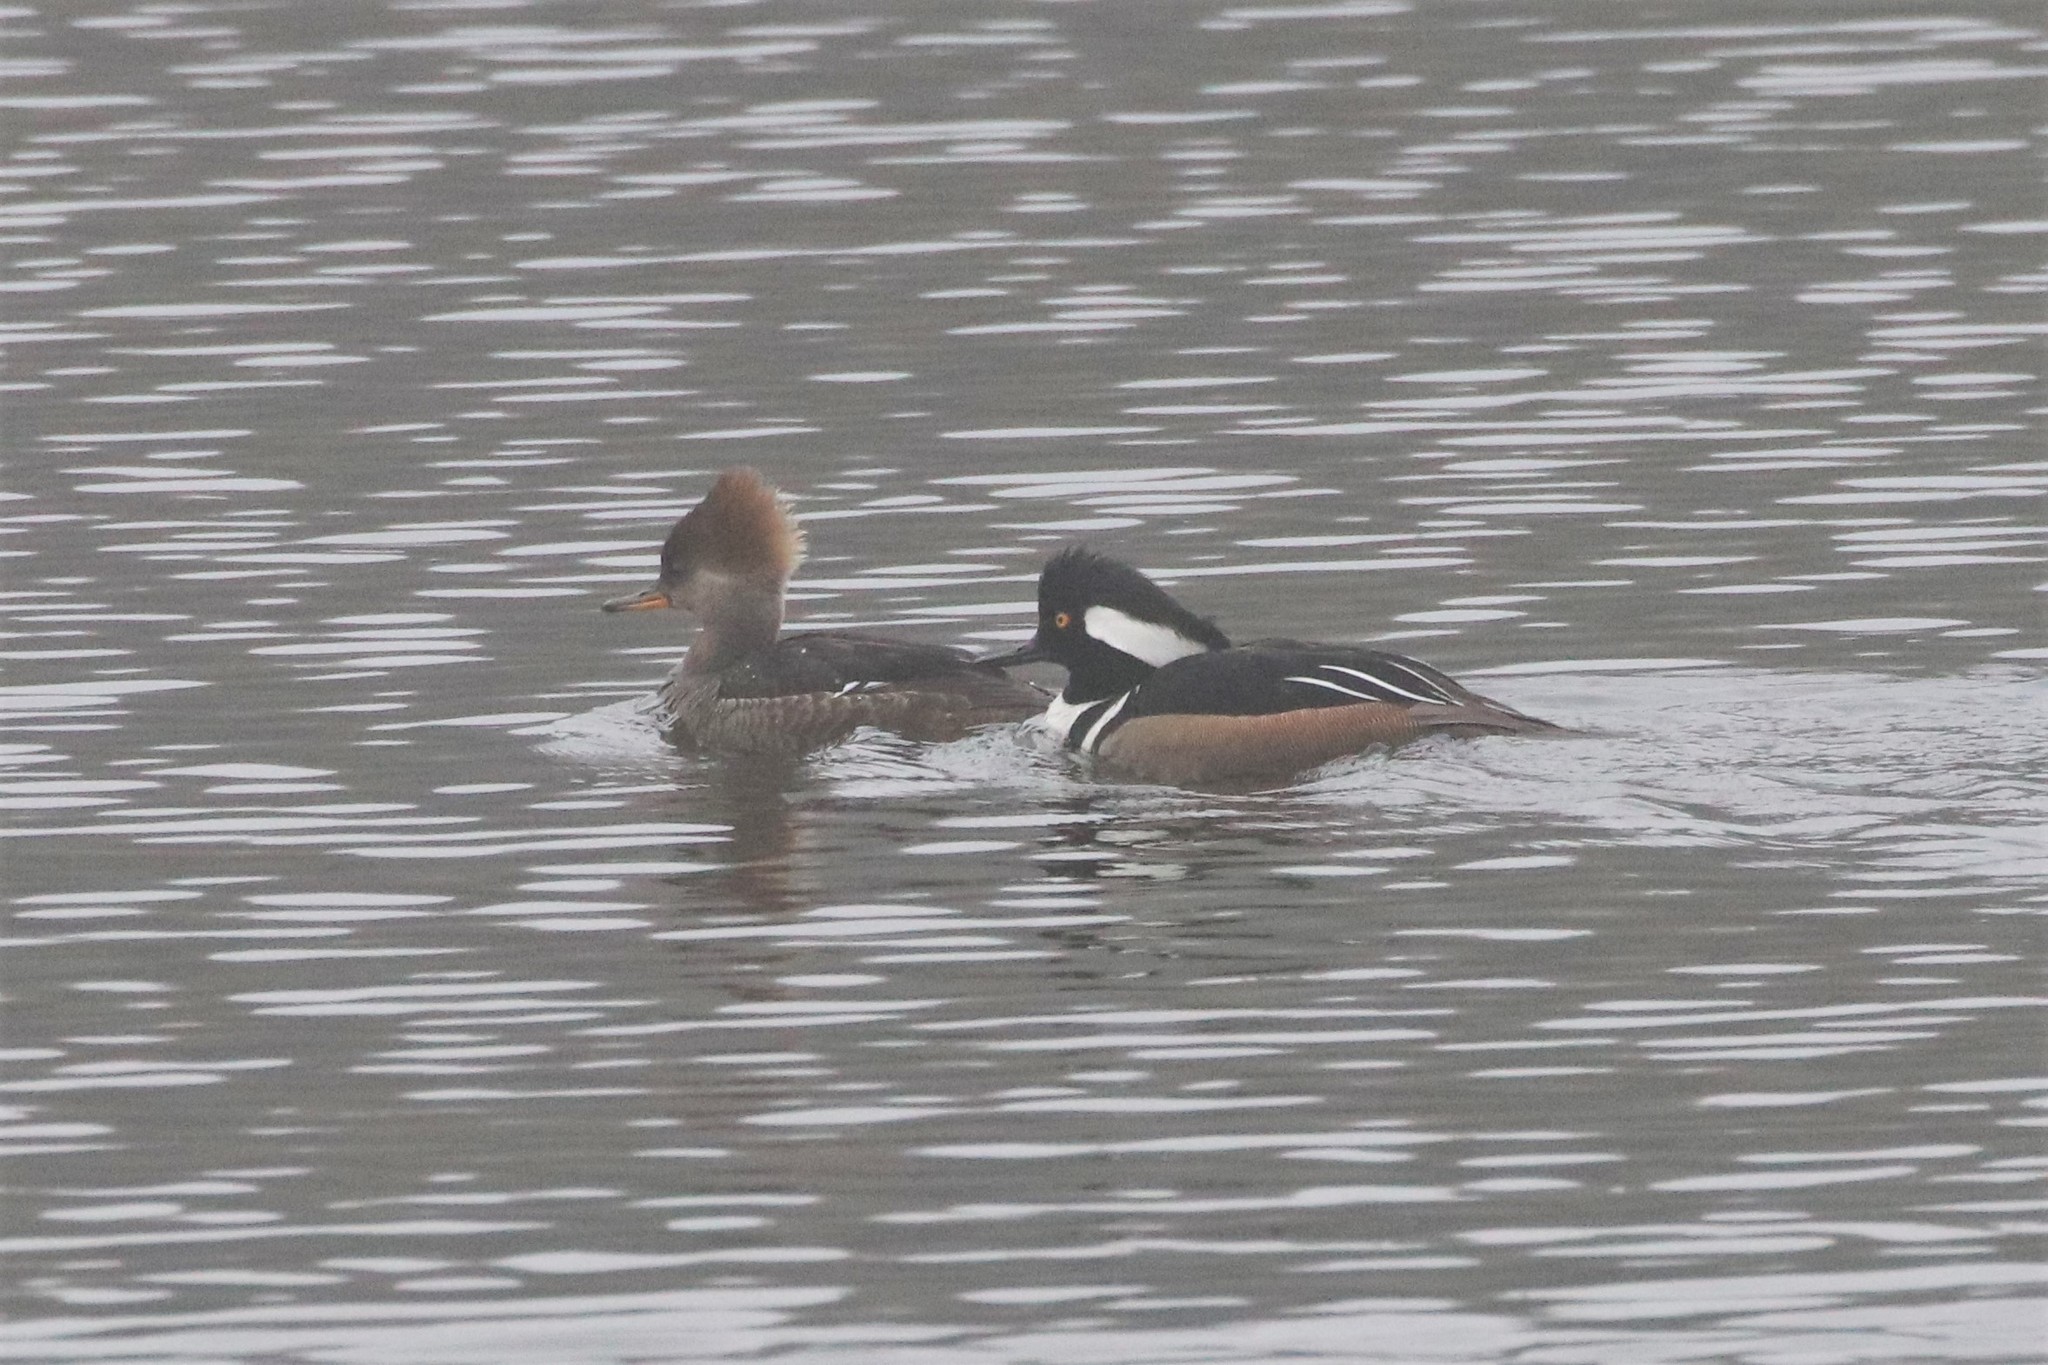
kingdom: Animalia
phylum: Chordata
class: Aves
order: Anseriformes
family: Anatidae
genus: Lophodytes
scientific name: Lophodytes cucullatus
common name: Hooded merganser
